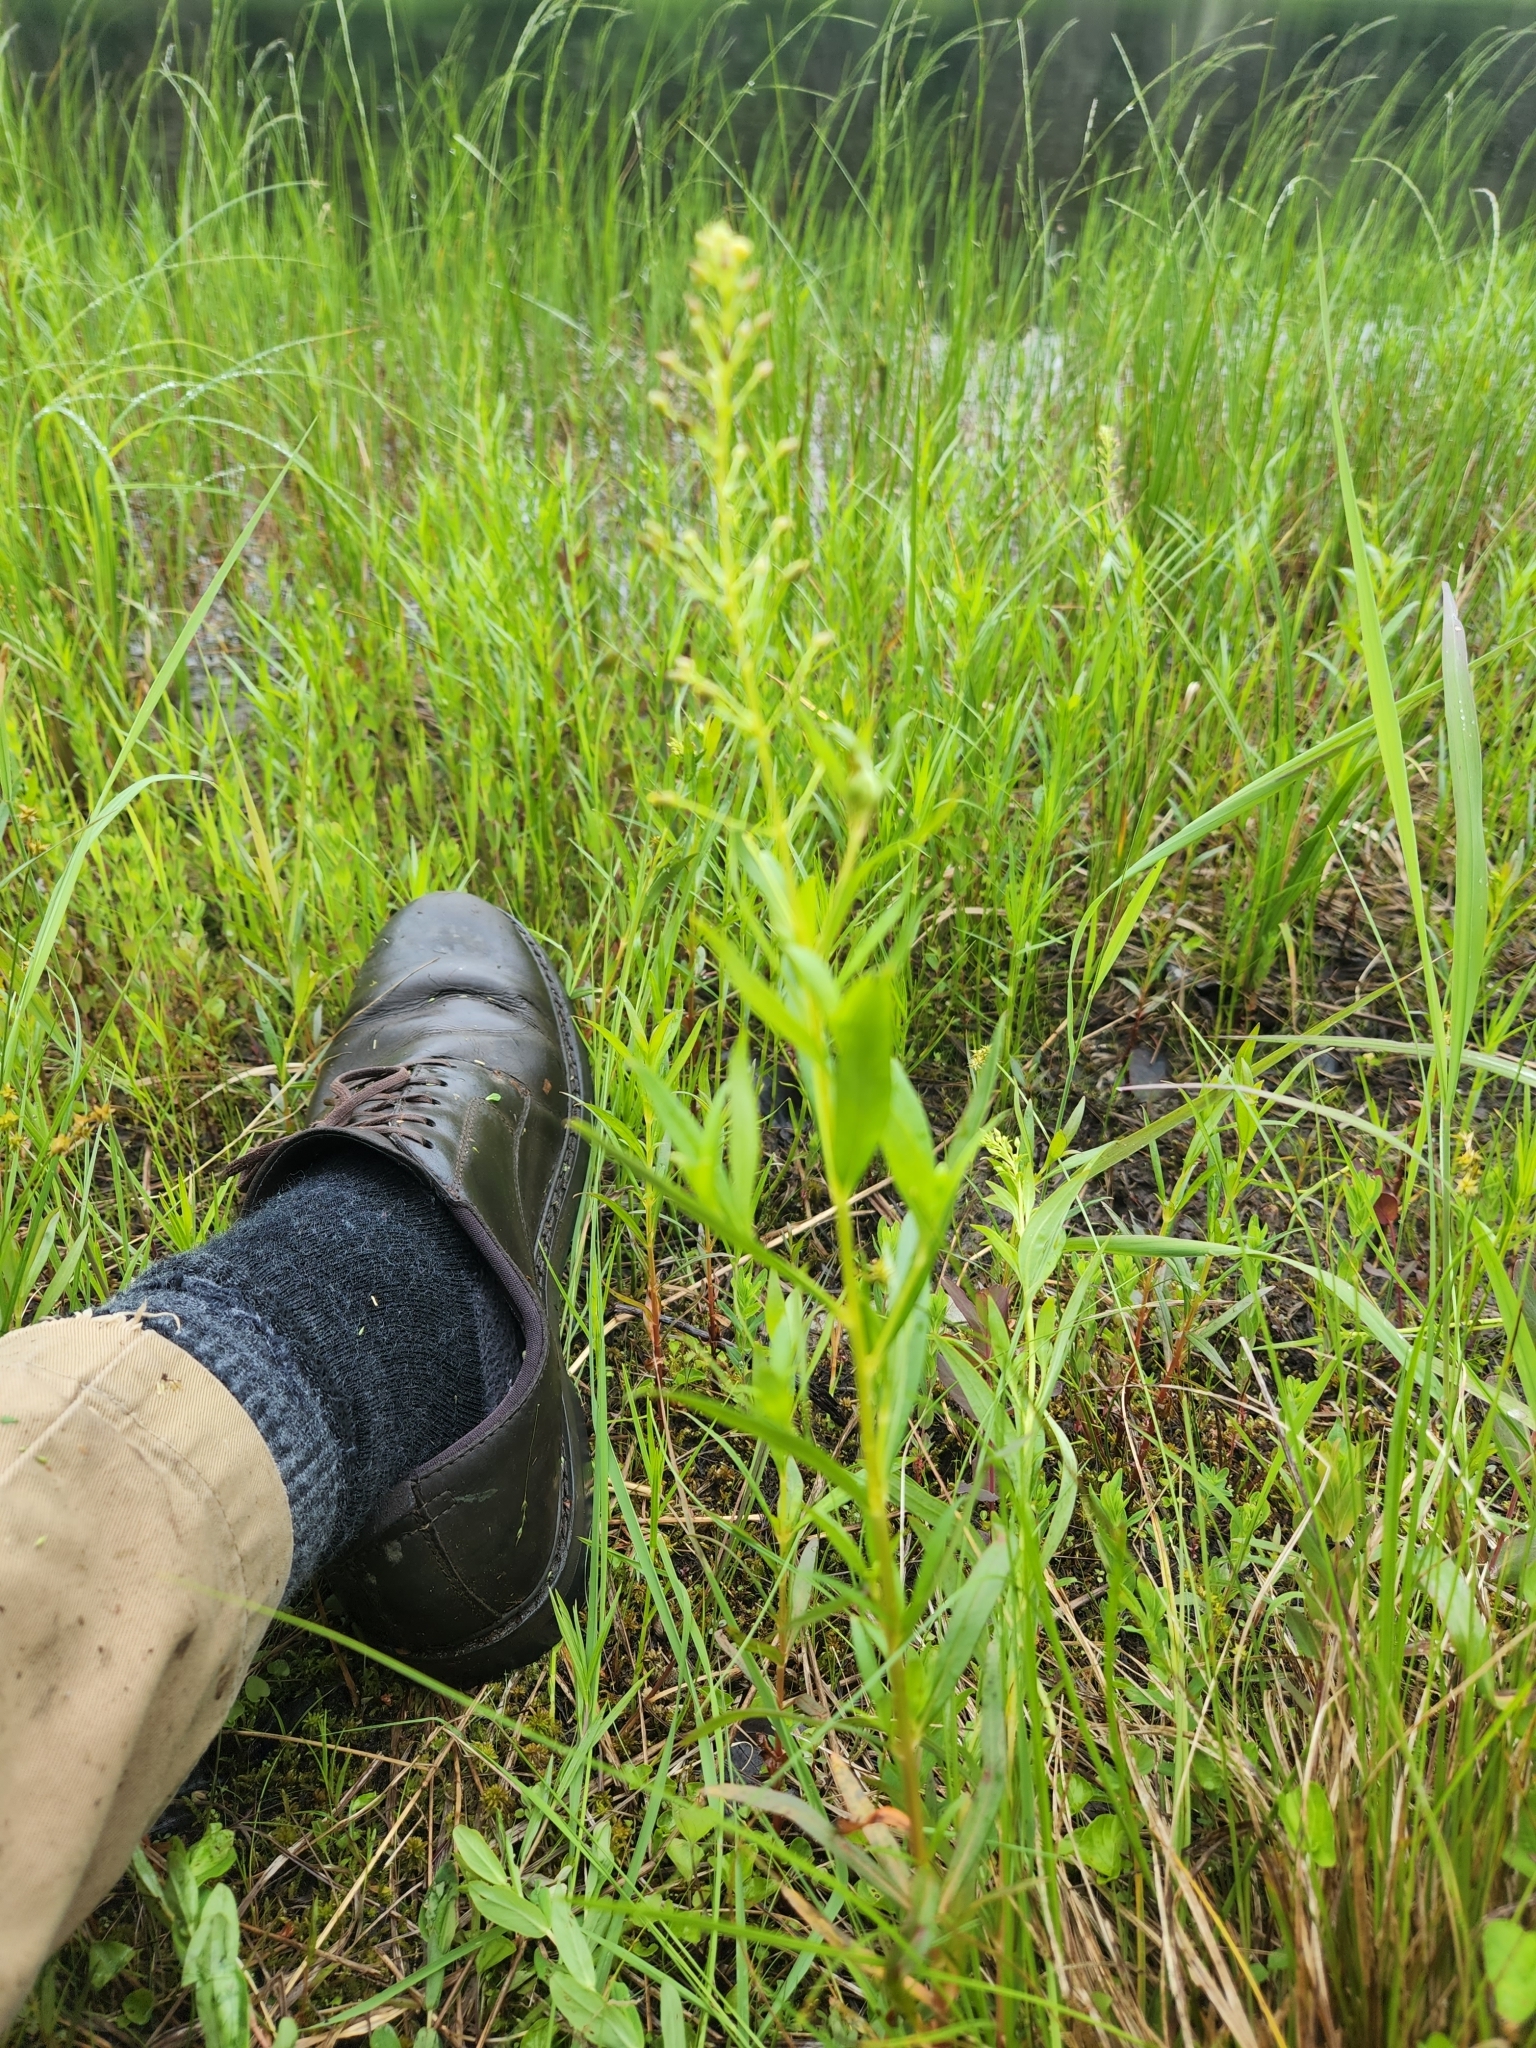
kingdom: Plantae
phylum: Tracheophyta
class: Magnoliopsida
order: Ericales
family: Primulaceae
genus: Lysimachia
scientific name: Lysimachia terrestris
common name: Lake loosestrife
